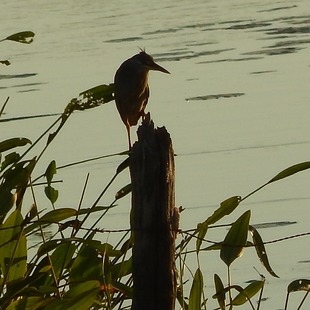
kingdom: Animalia
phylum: Chordata
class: Aves
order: Pelecaniformes
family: Ardeidae
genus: Butorides
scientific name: Butorides striata
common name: Striated heron
